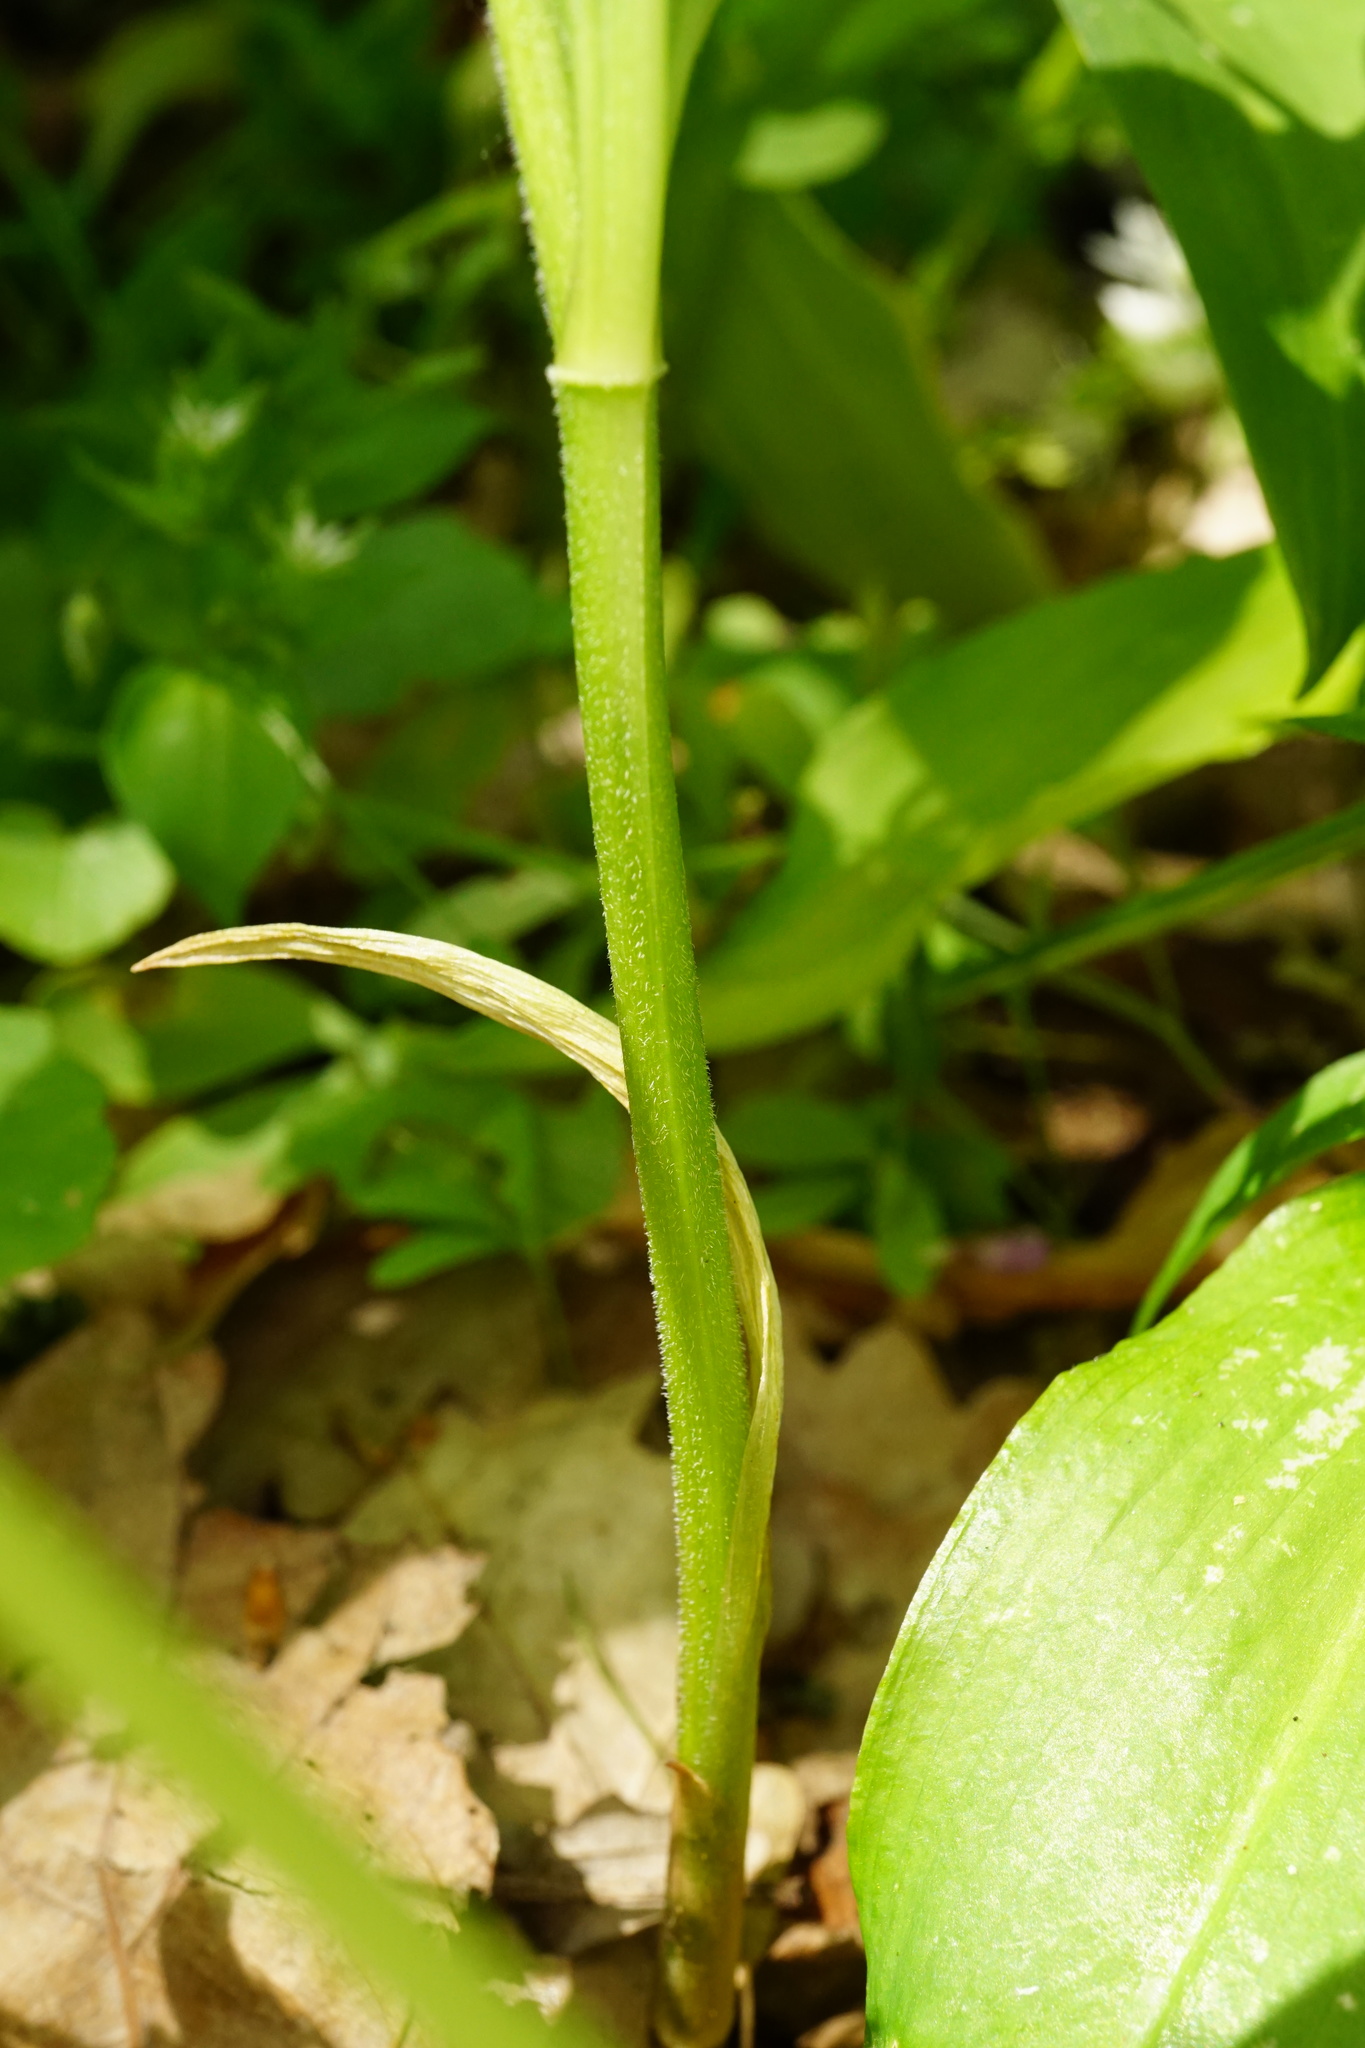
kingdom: Plantae
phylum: Tracheophyta
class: Liliopsida
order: Asparagales
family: Asparagaceae
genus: Polygonatum
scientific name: Polygonatum latifolium
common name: Broadleaf solomon's seal
